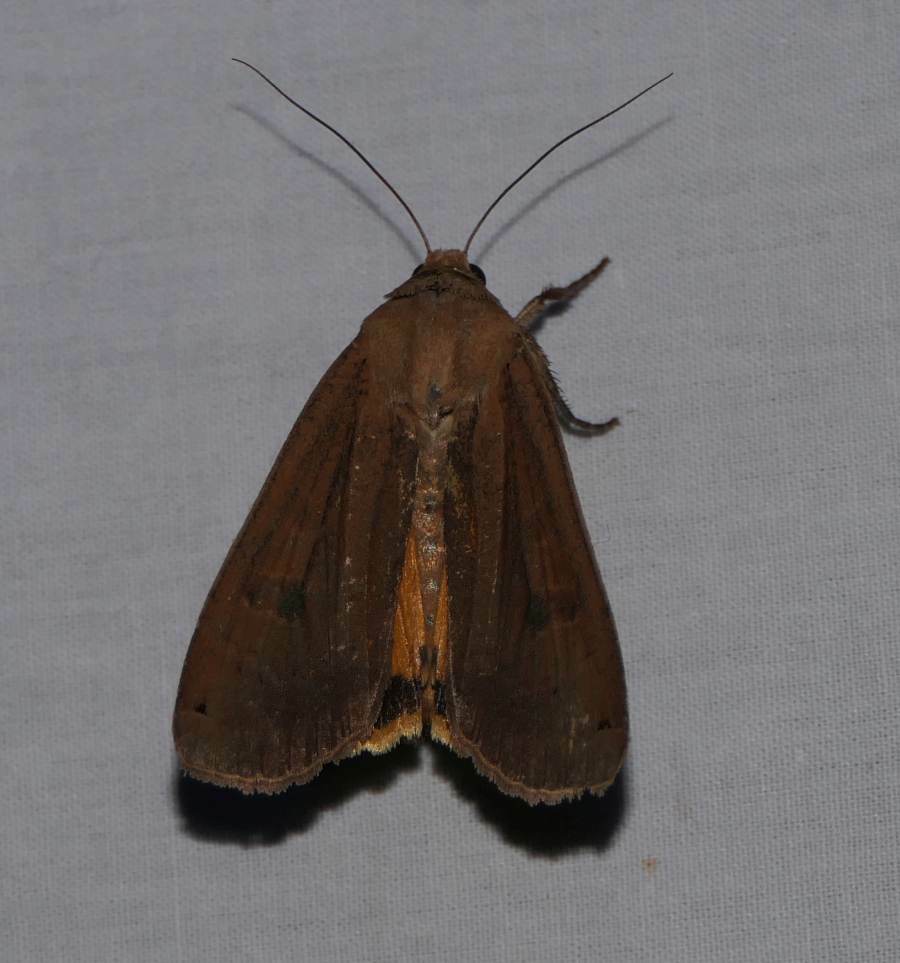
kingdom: Animalia
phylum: Arthropoda
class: Insecta
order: Lepidoptera
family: Noctuidae
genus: Noctua
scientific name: Noctua pronuba
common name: Large yellow underwing
